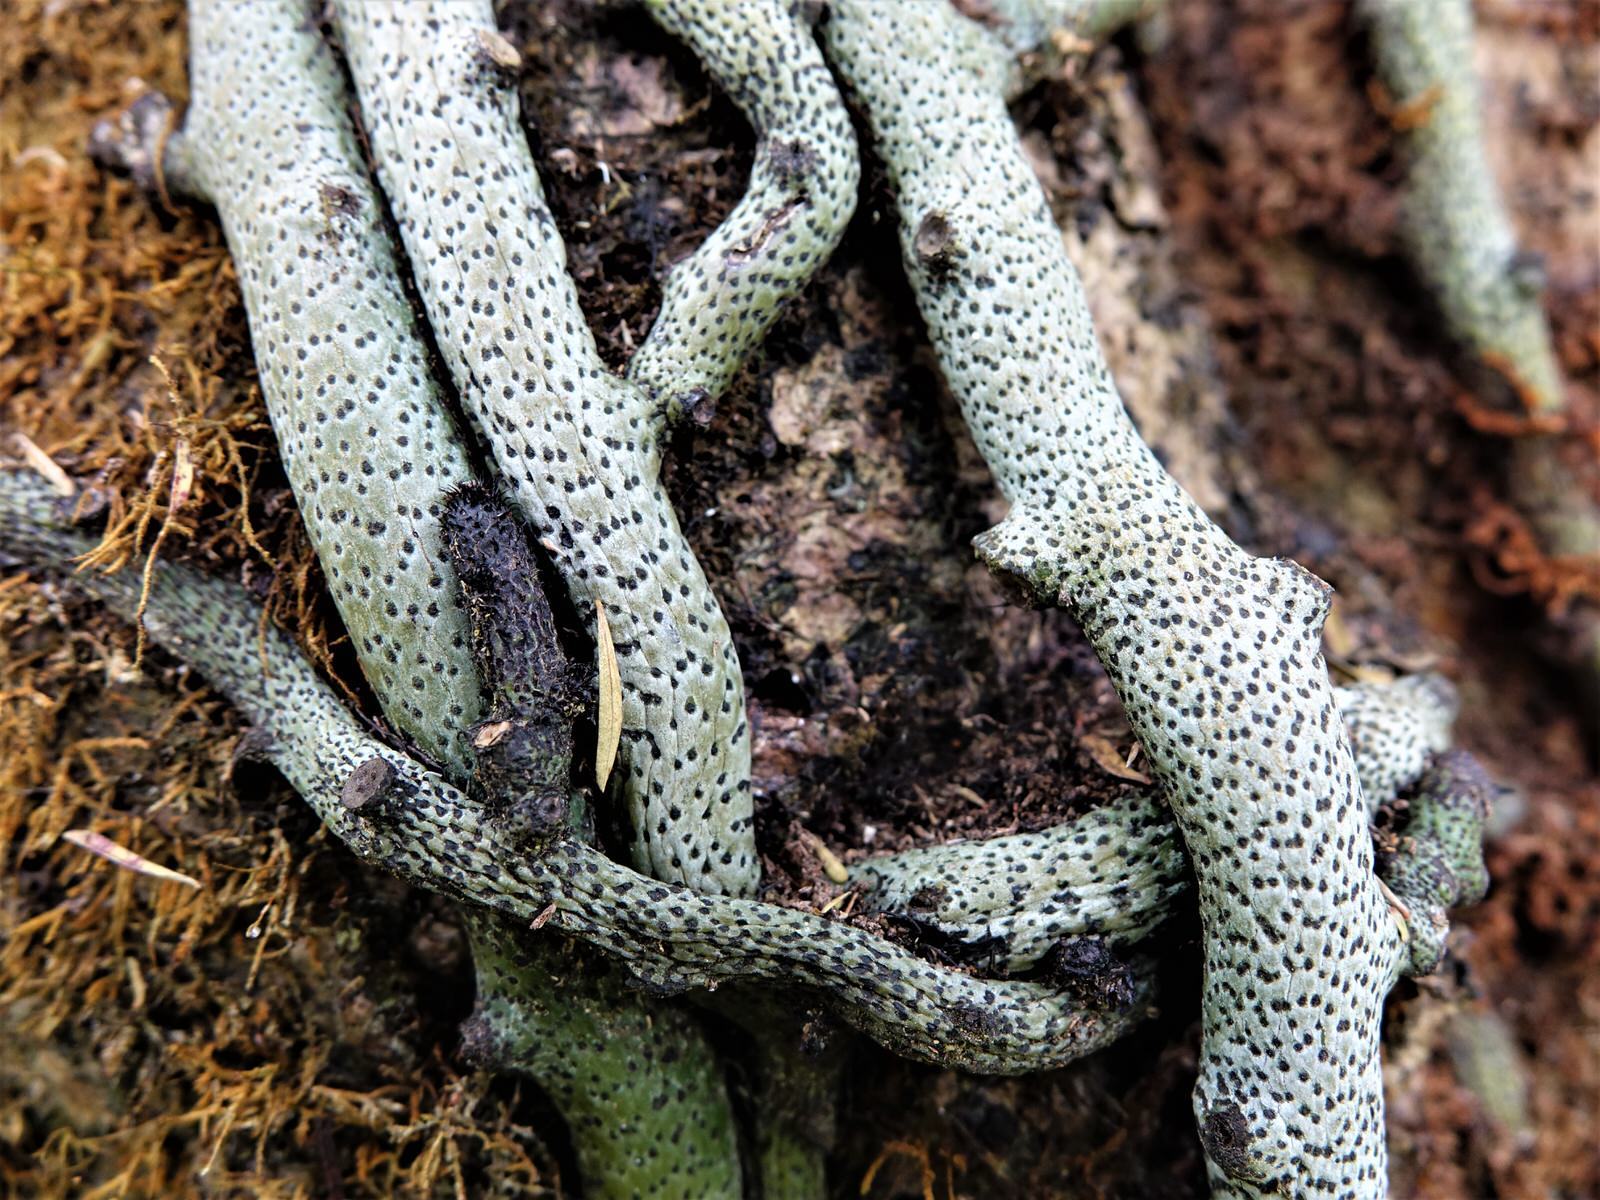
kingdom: Plantae
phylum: Tracheophyta
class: Polypodiopsida
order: Polypodiales
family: Polypodiaceae
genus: Lecanopteris
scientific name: Lecanopteris pustulata
